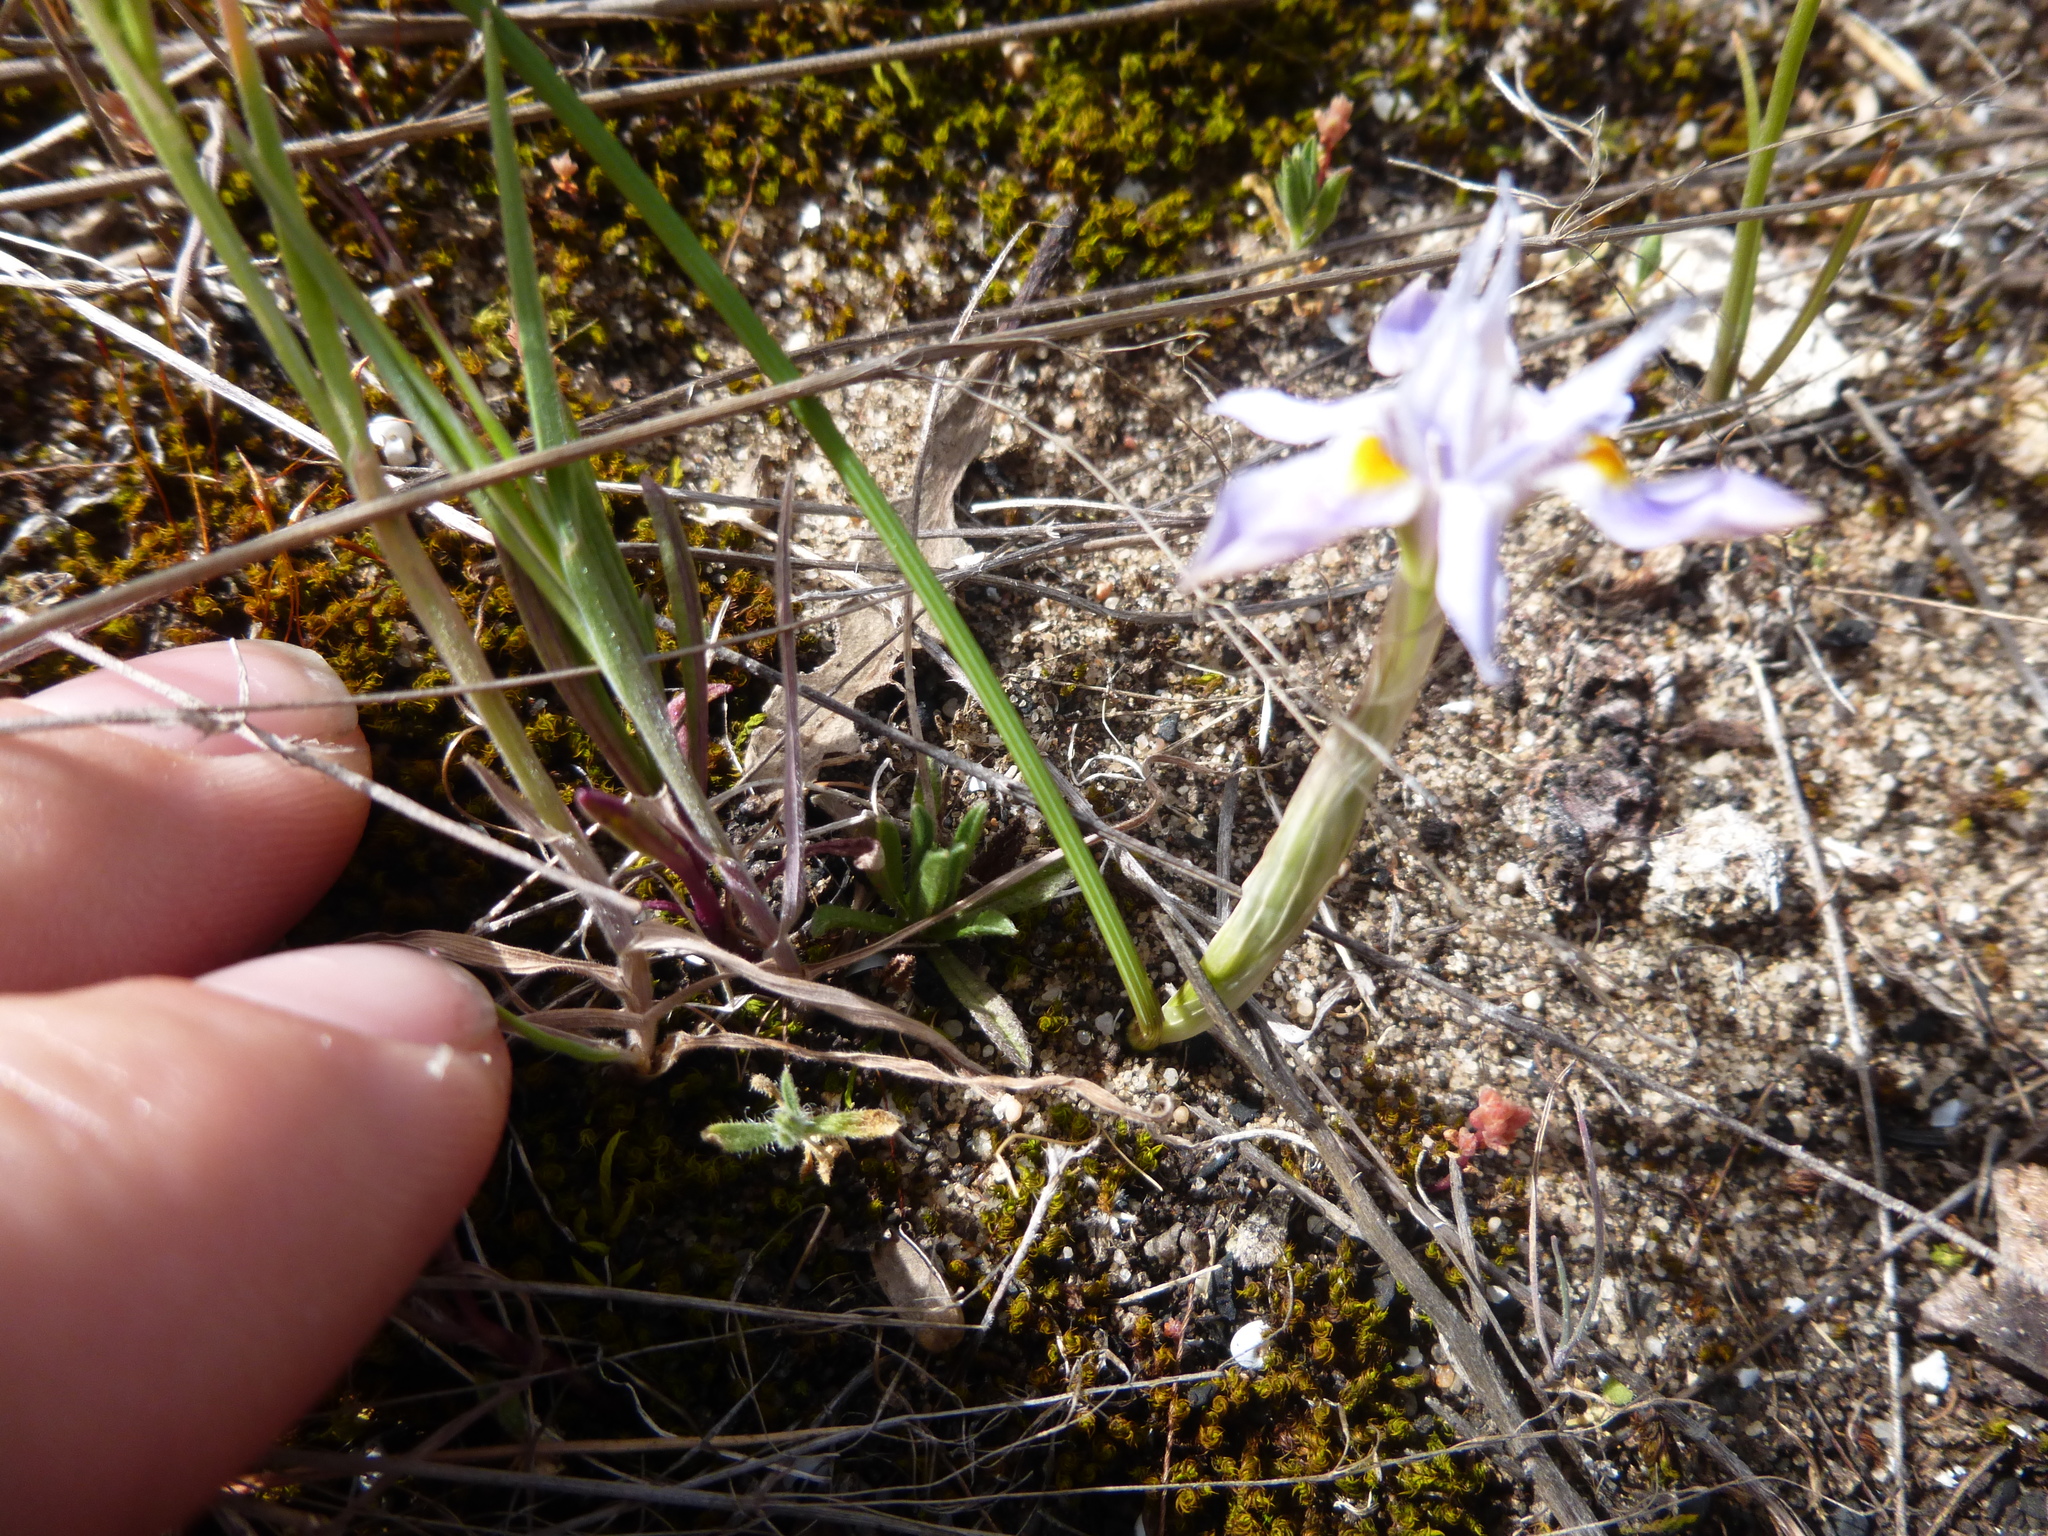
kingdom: Plantae
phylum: Tracheophyta
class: Liliopsida
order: Asparagales
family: Iridaceae
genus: Moraea
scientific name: Moraea setifolia
